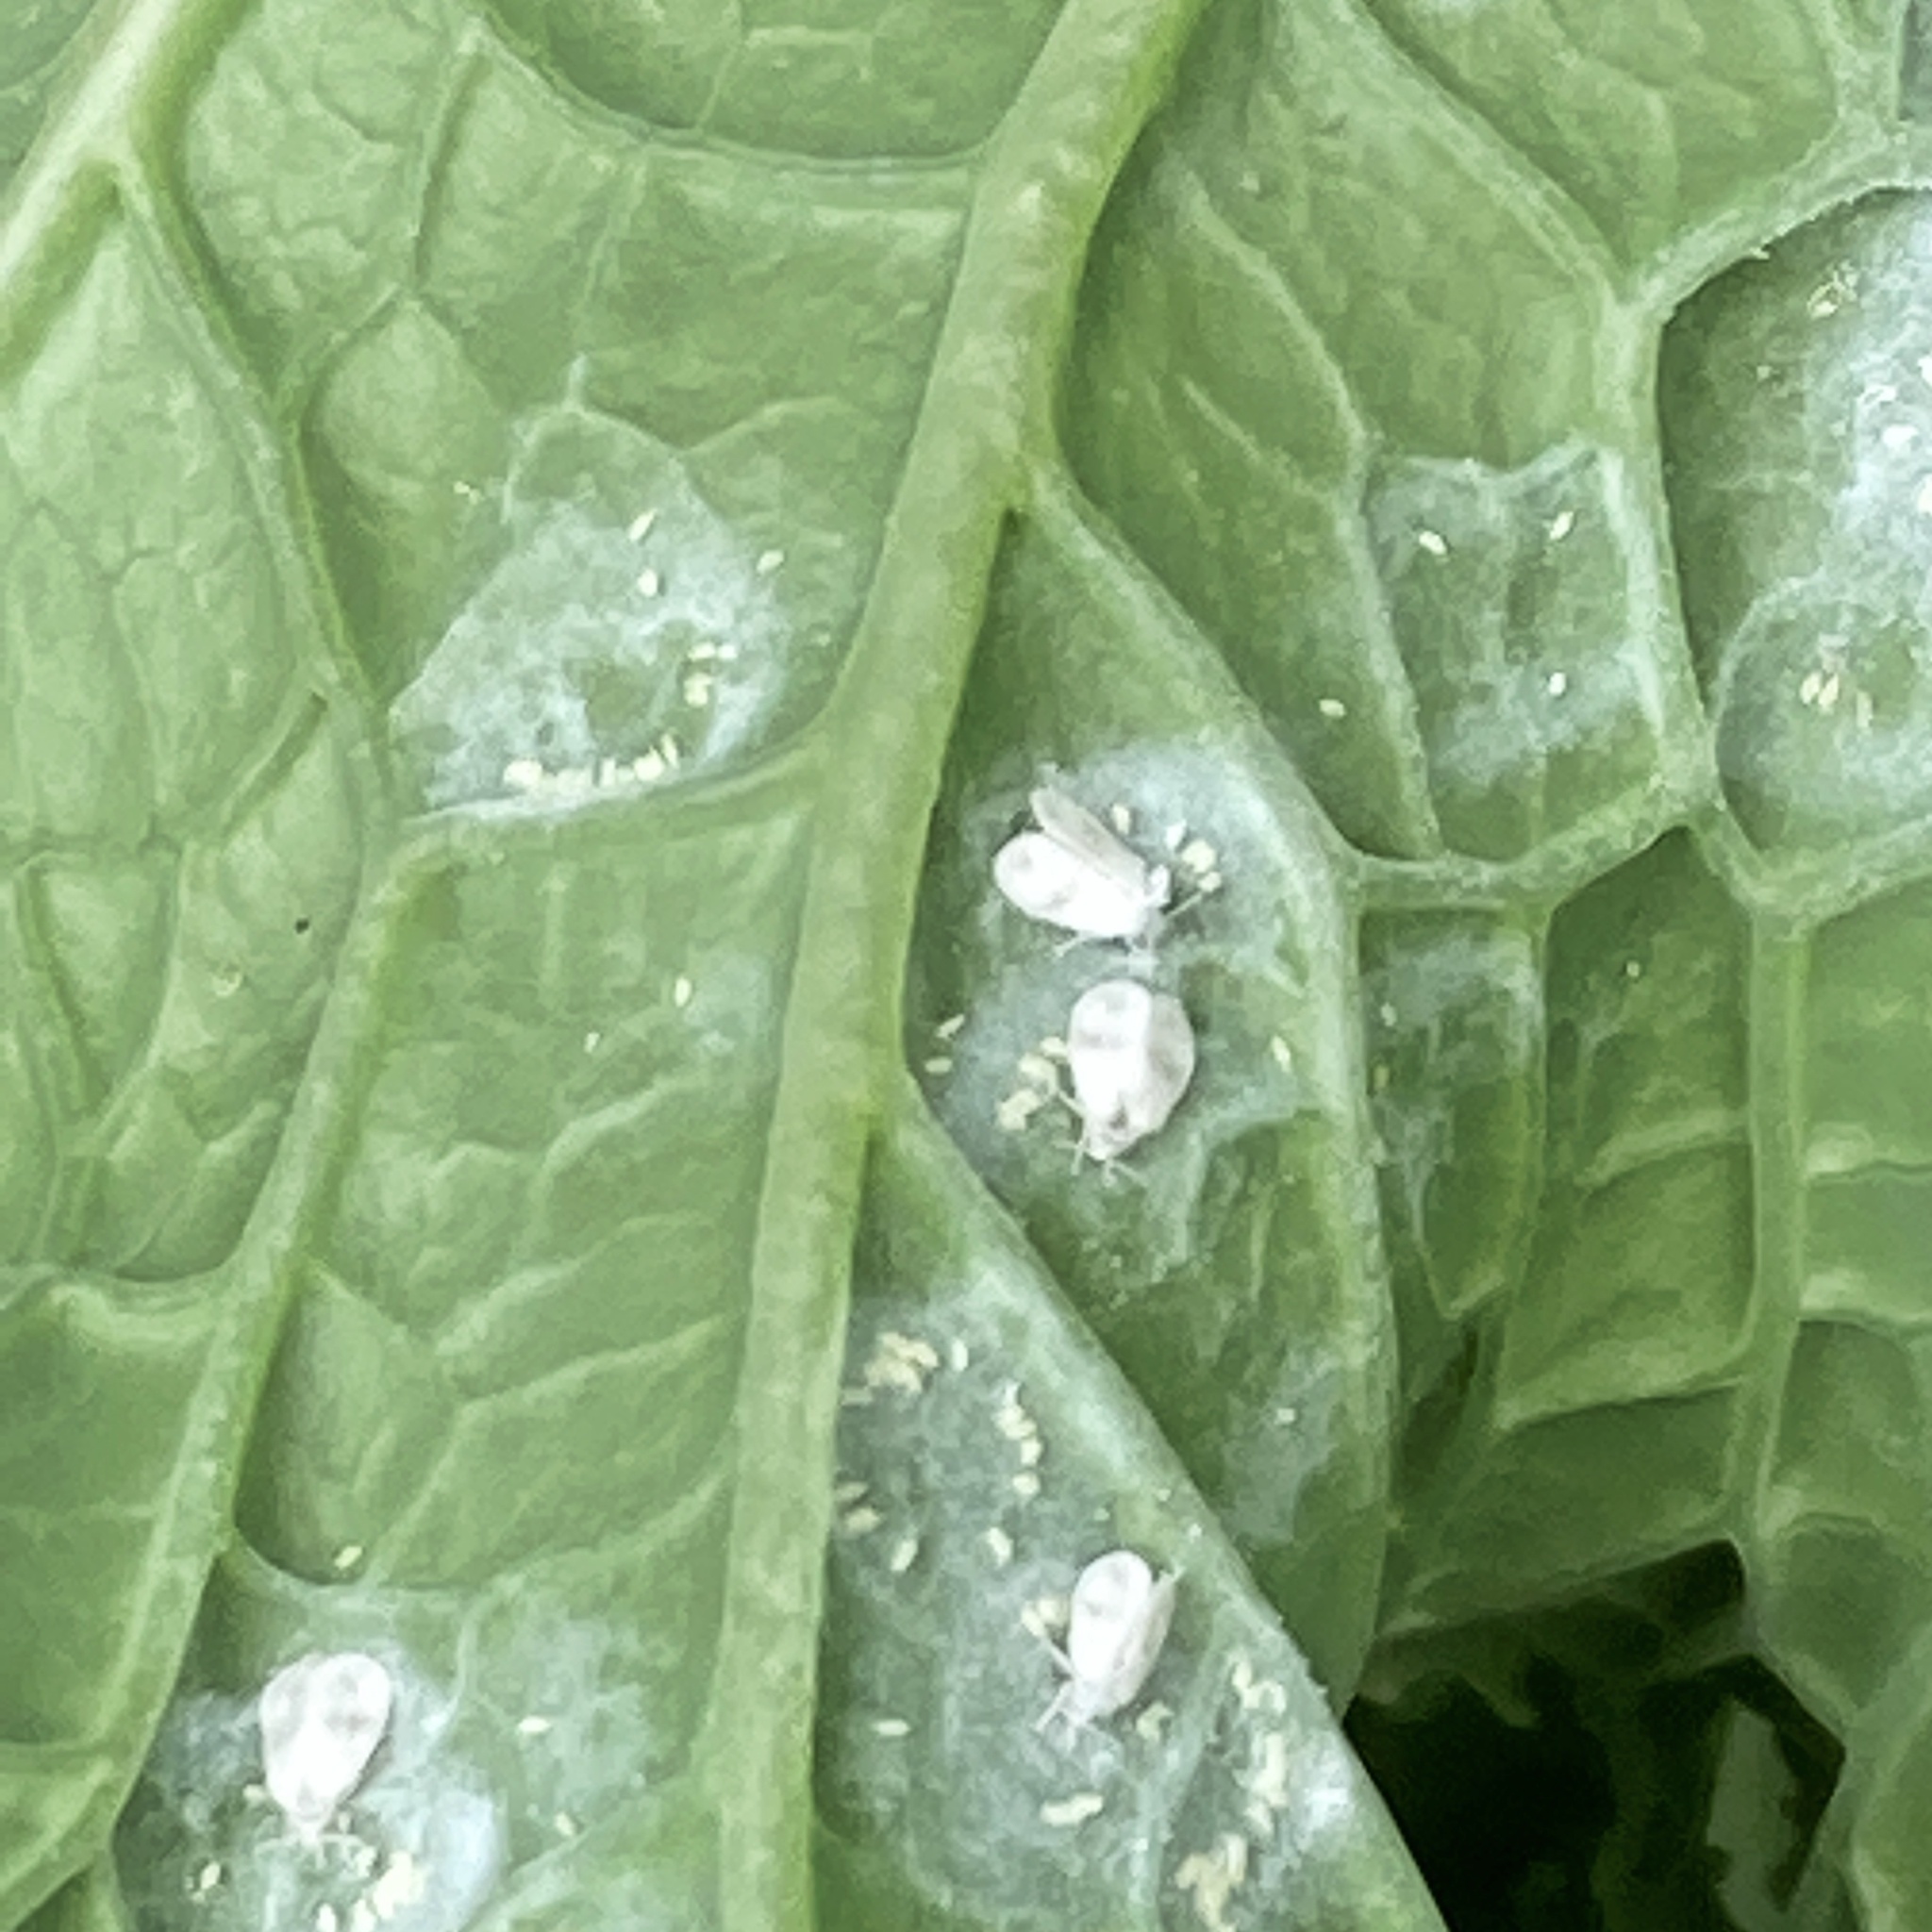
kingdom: Animalia
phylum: Arthropoda
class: Insecta
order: Hemiptera
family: Aleyrodidae
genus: Aleyrodes
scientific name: Aleyrodes proletella
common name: Cabbage whitefly
